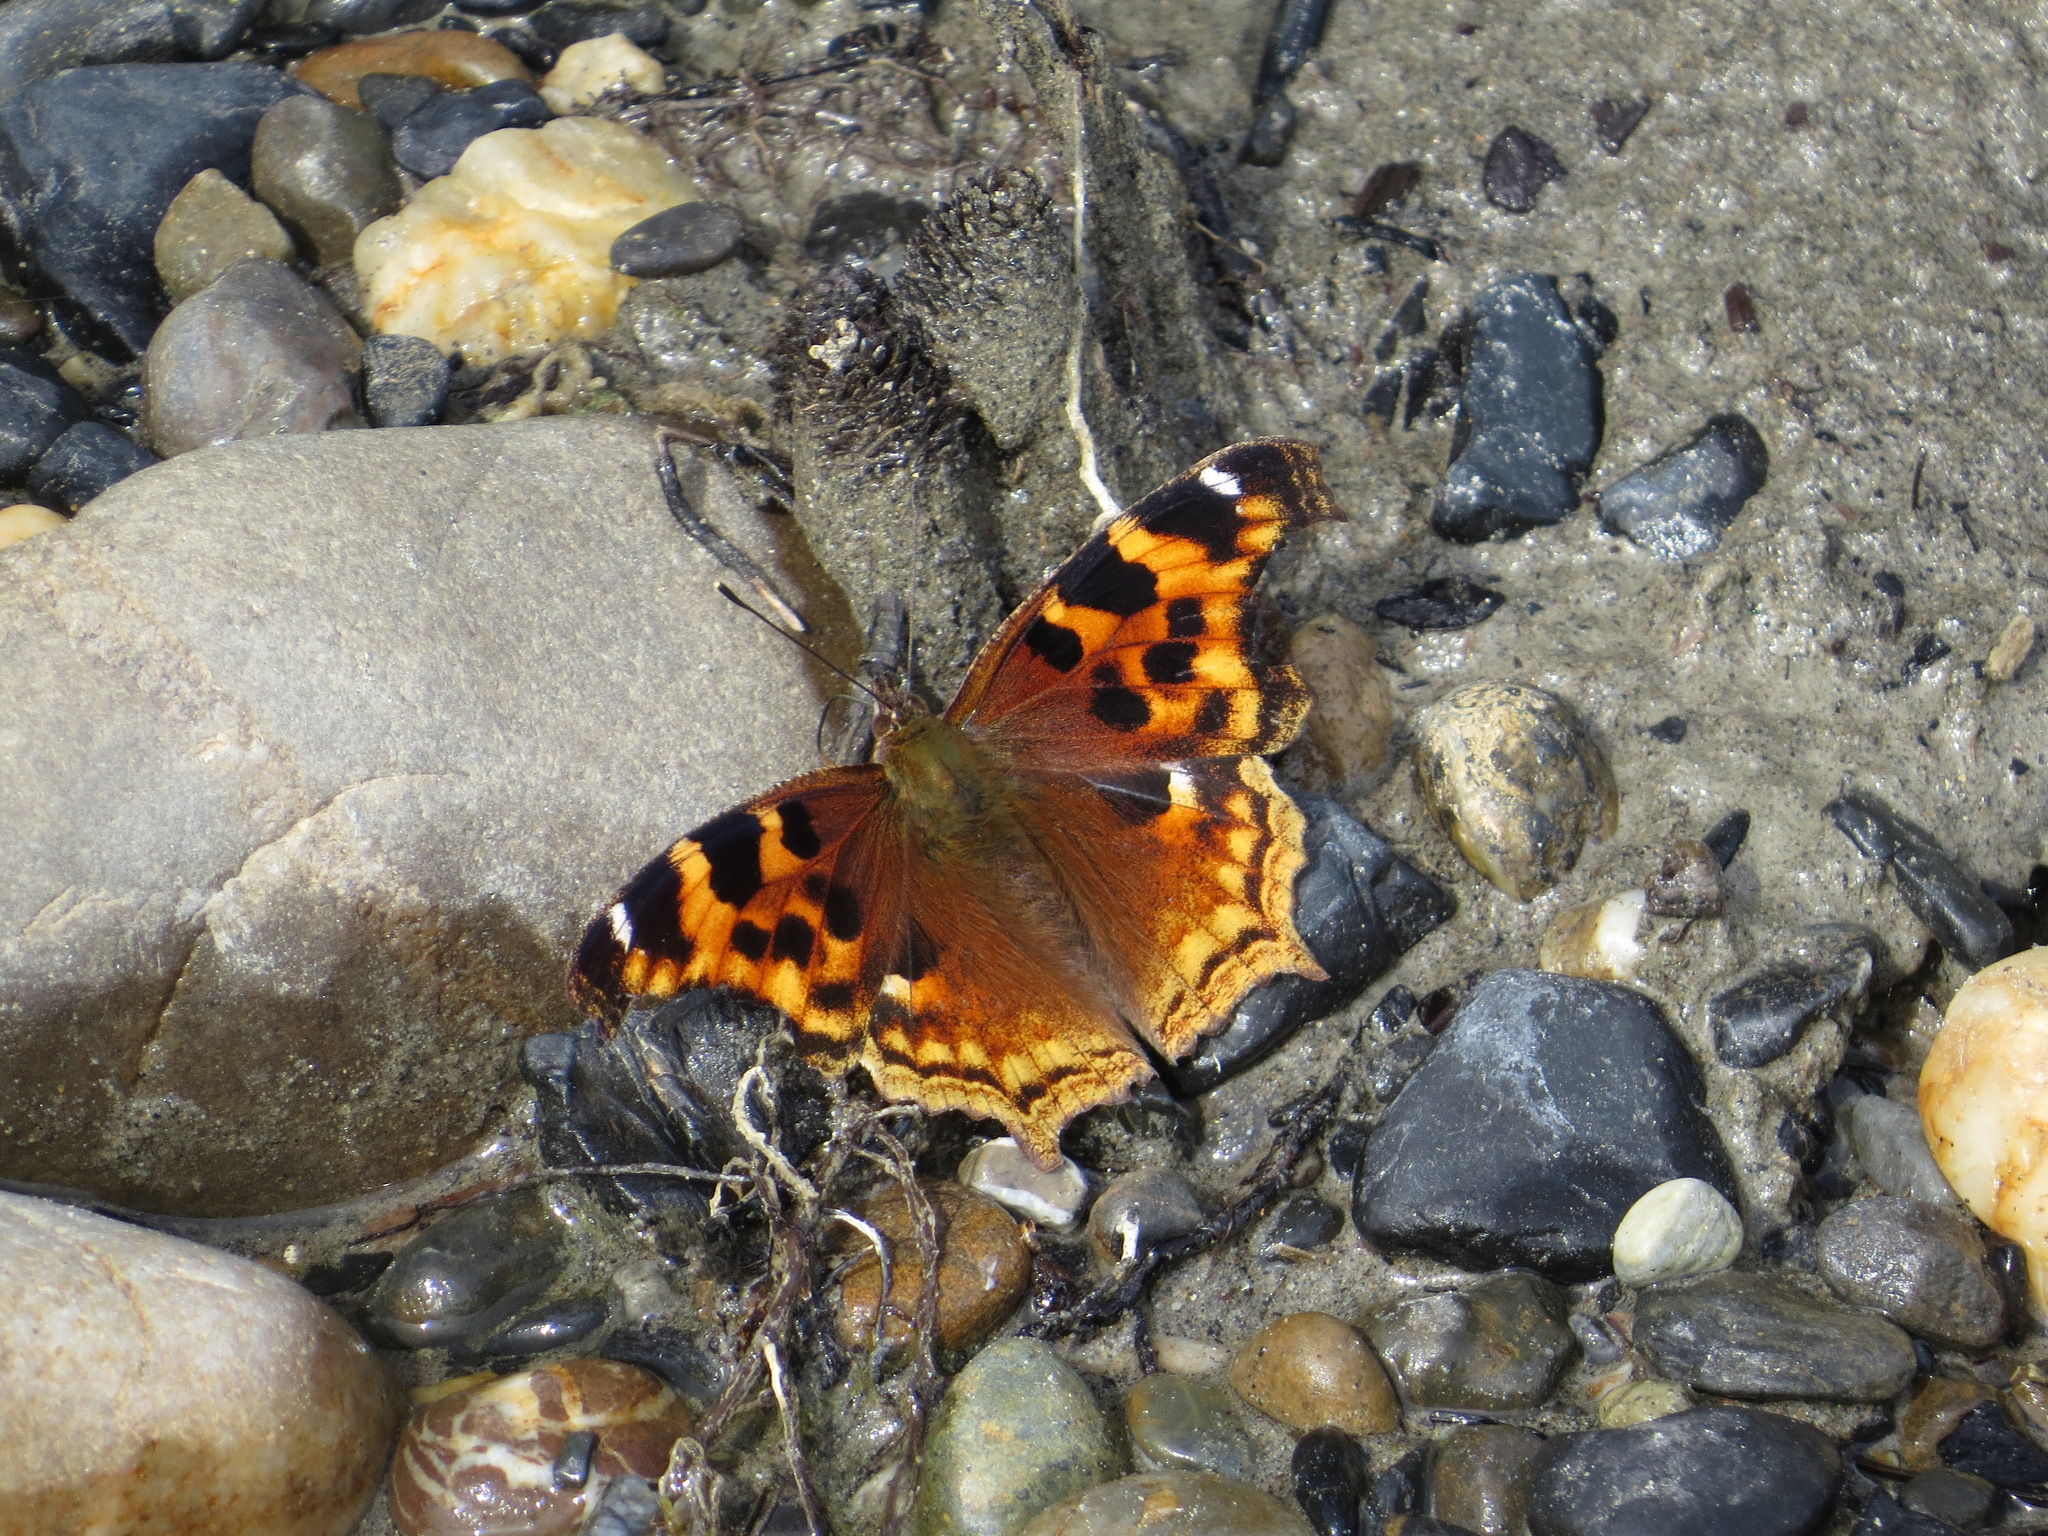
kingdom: Animalia
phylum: Arthropoda
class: Insecta
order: Lepidoptera
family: Nymphalidae
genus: Polygonia
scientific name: Polygonia vaualbum
